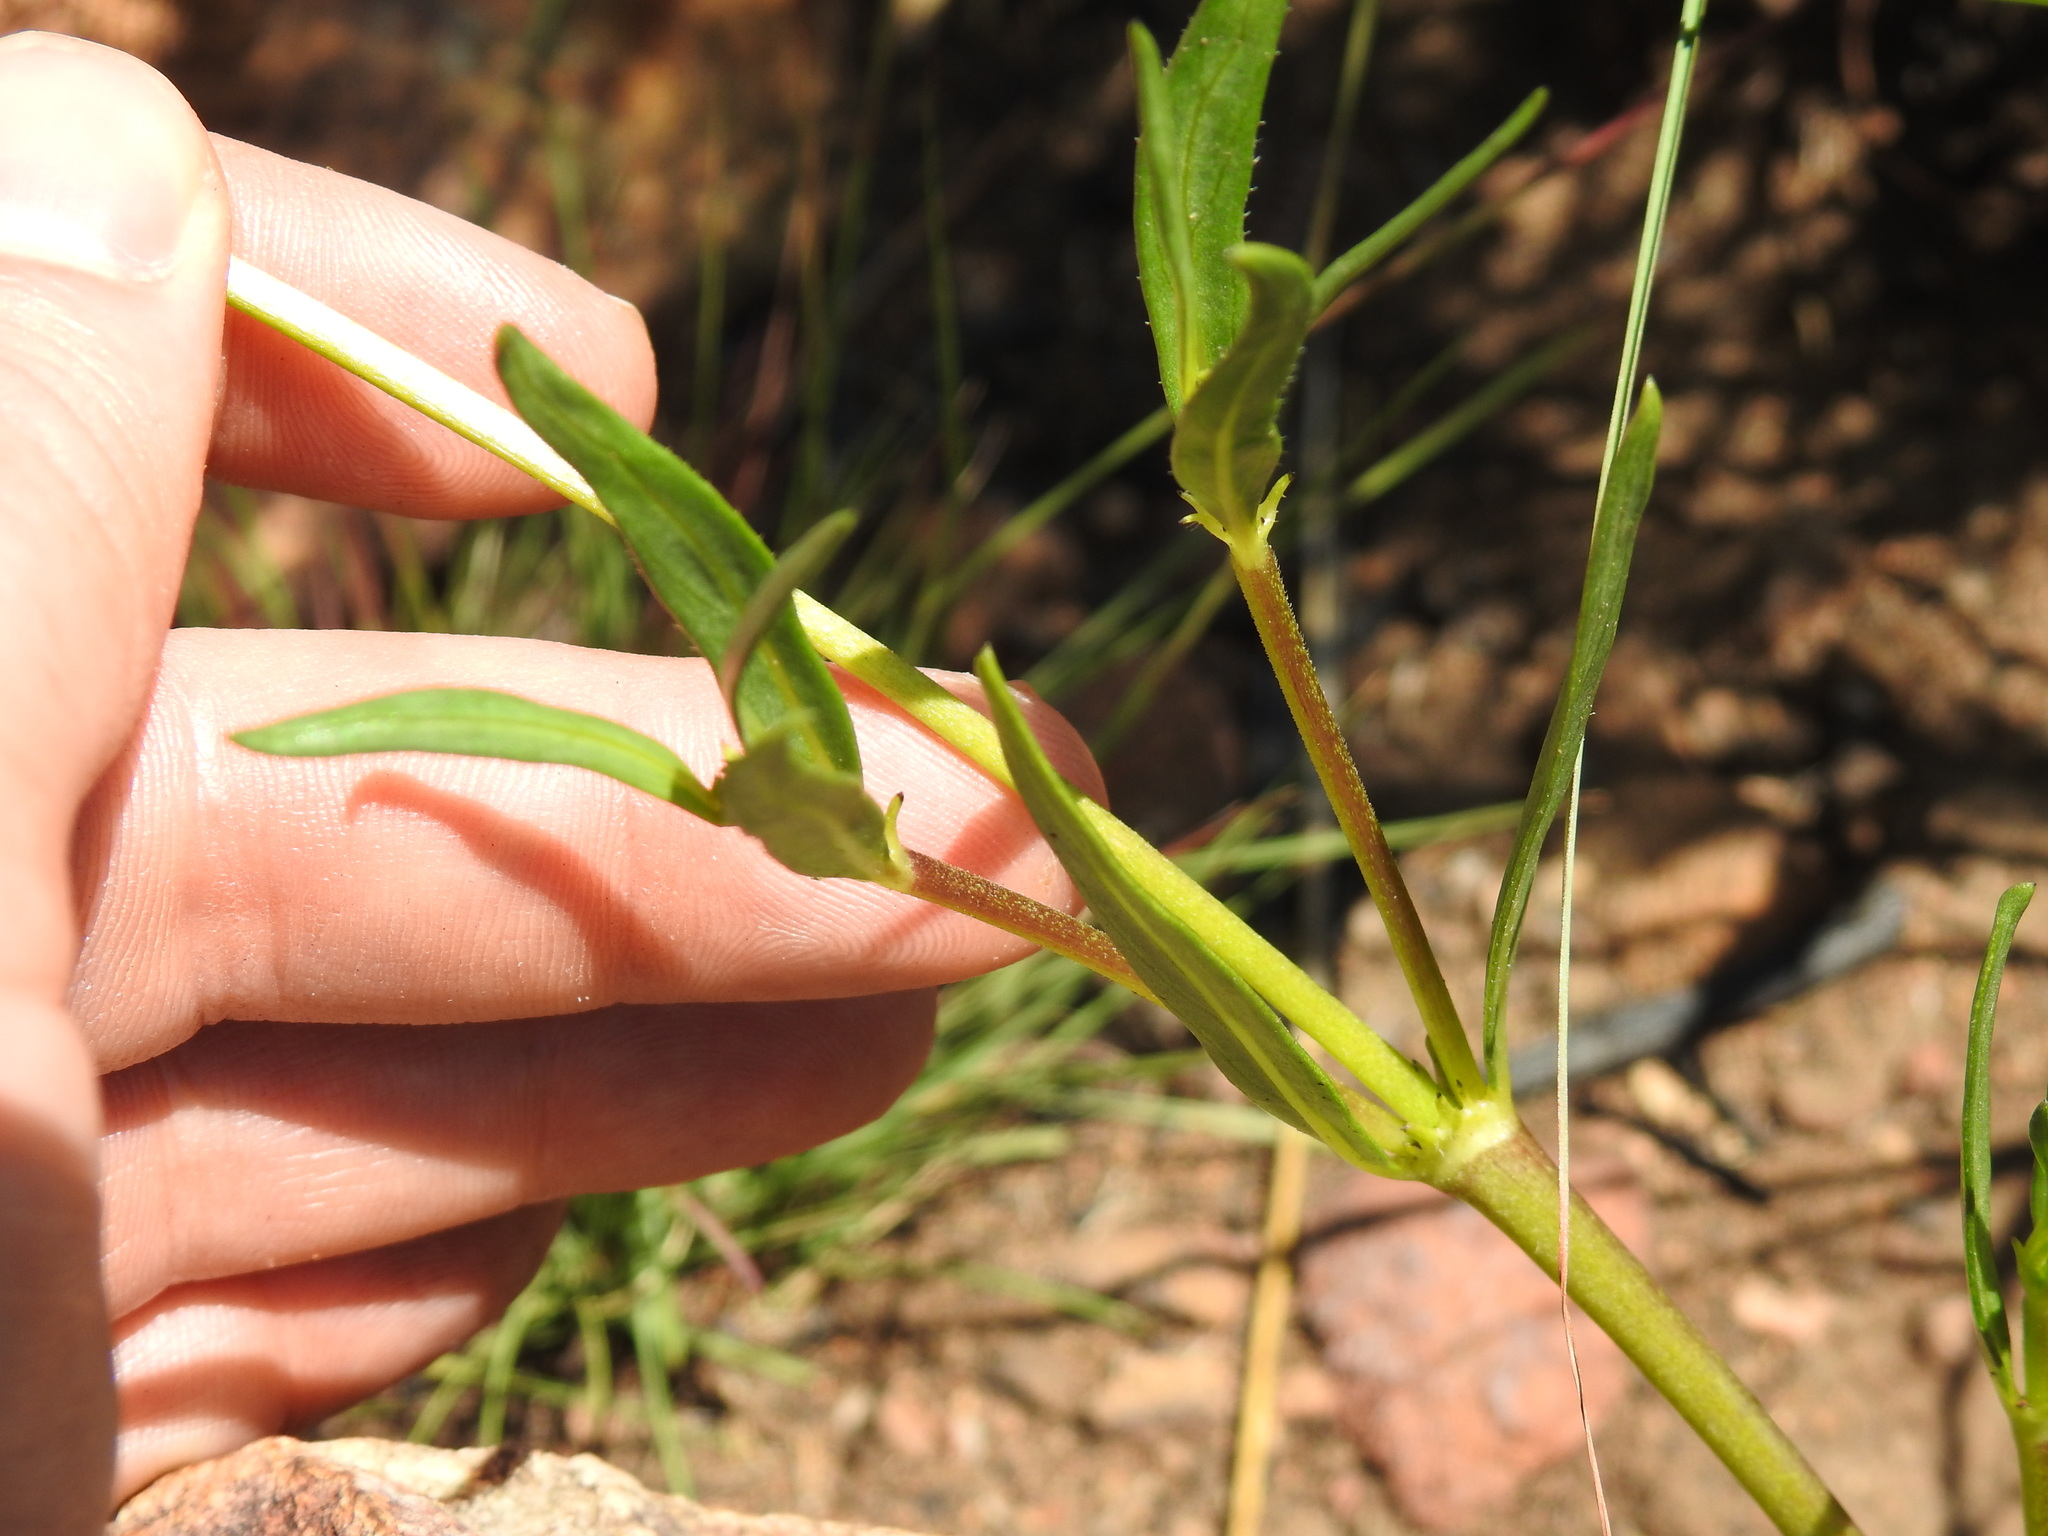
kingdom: Plantae
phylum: Tracheophyta
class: Magnoliopsida
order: Gentianales
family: Rubiaceae
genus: Pentanisia
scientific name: Pentanisia angustifolia
